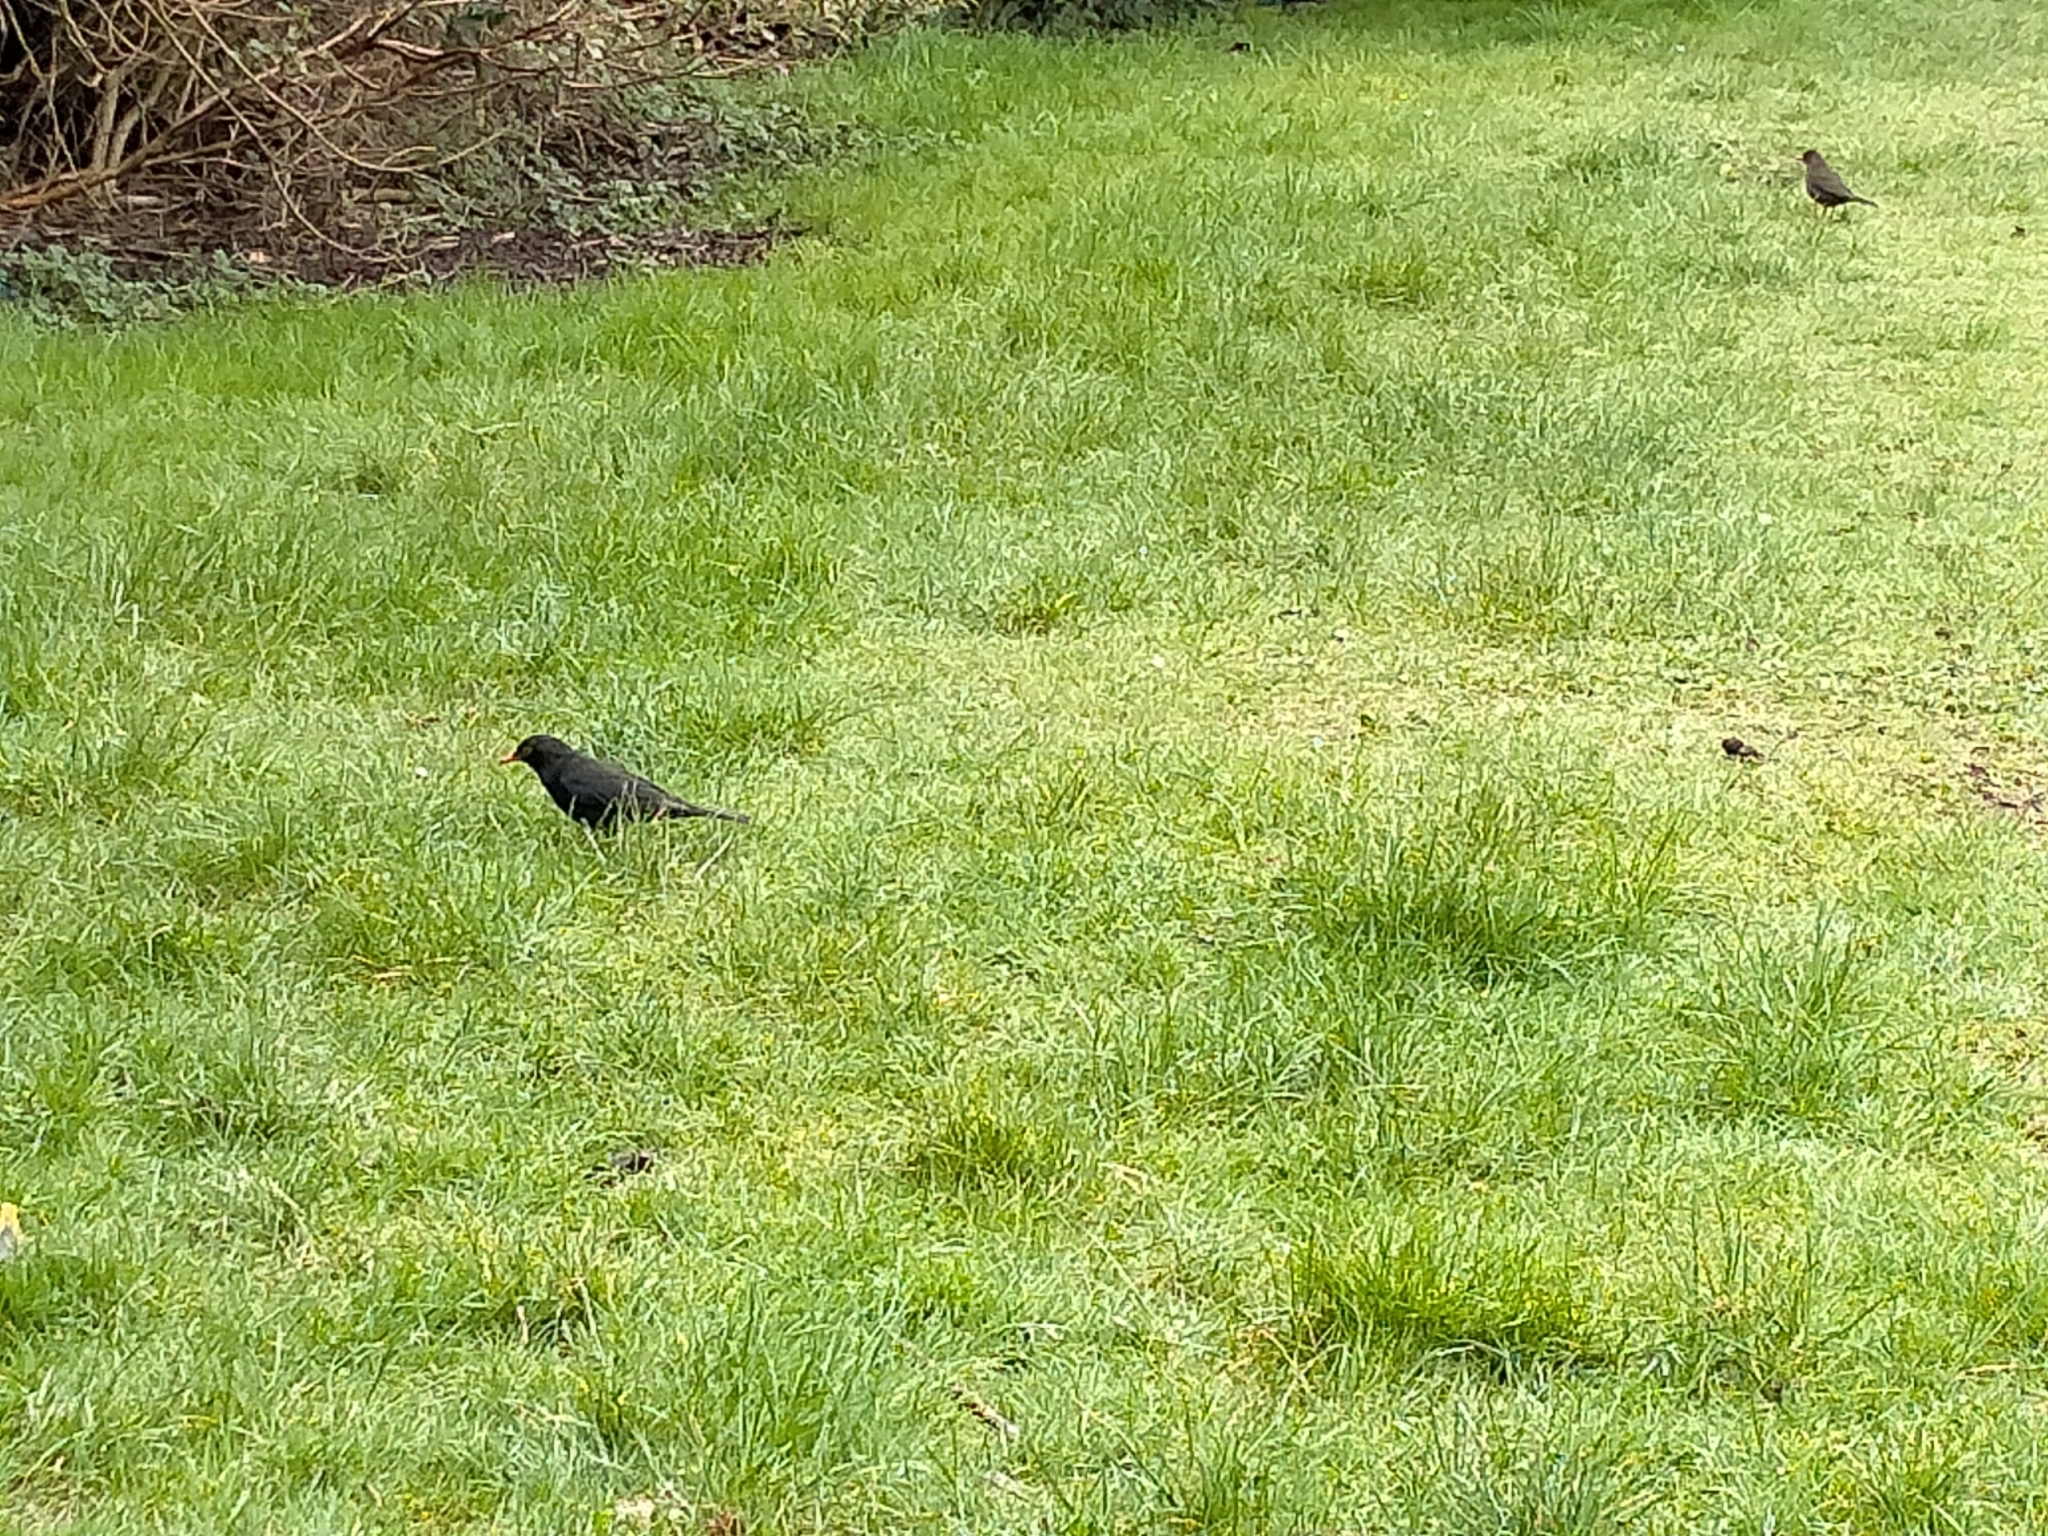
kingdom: Animalia
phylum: Chordata
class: Aves
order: Passeriformes
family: Turdidae
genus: Turdus
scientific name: Turdus merula
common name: Common blackbird
